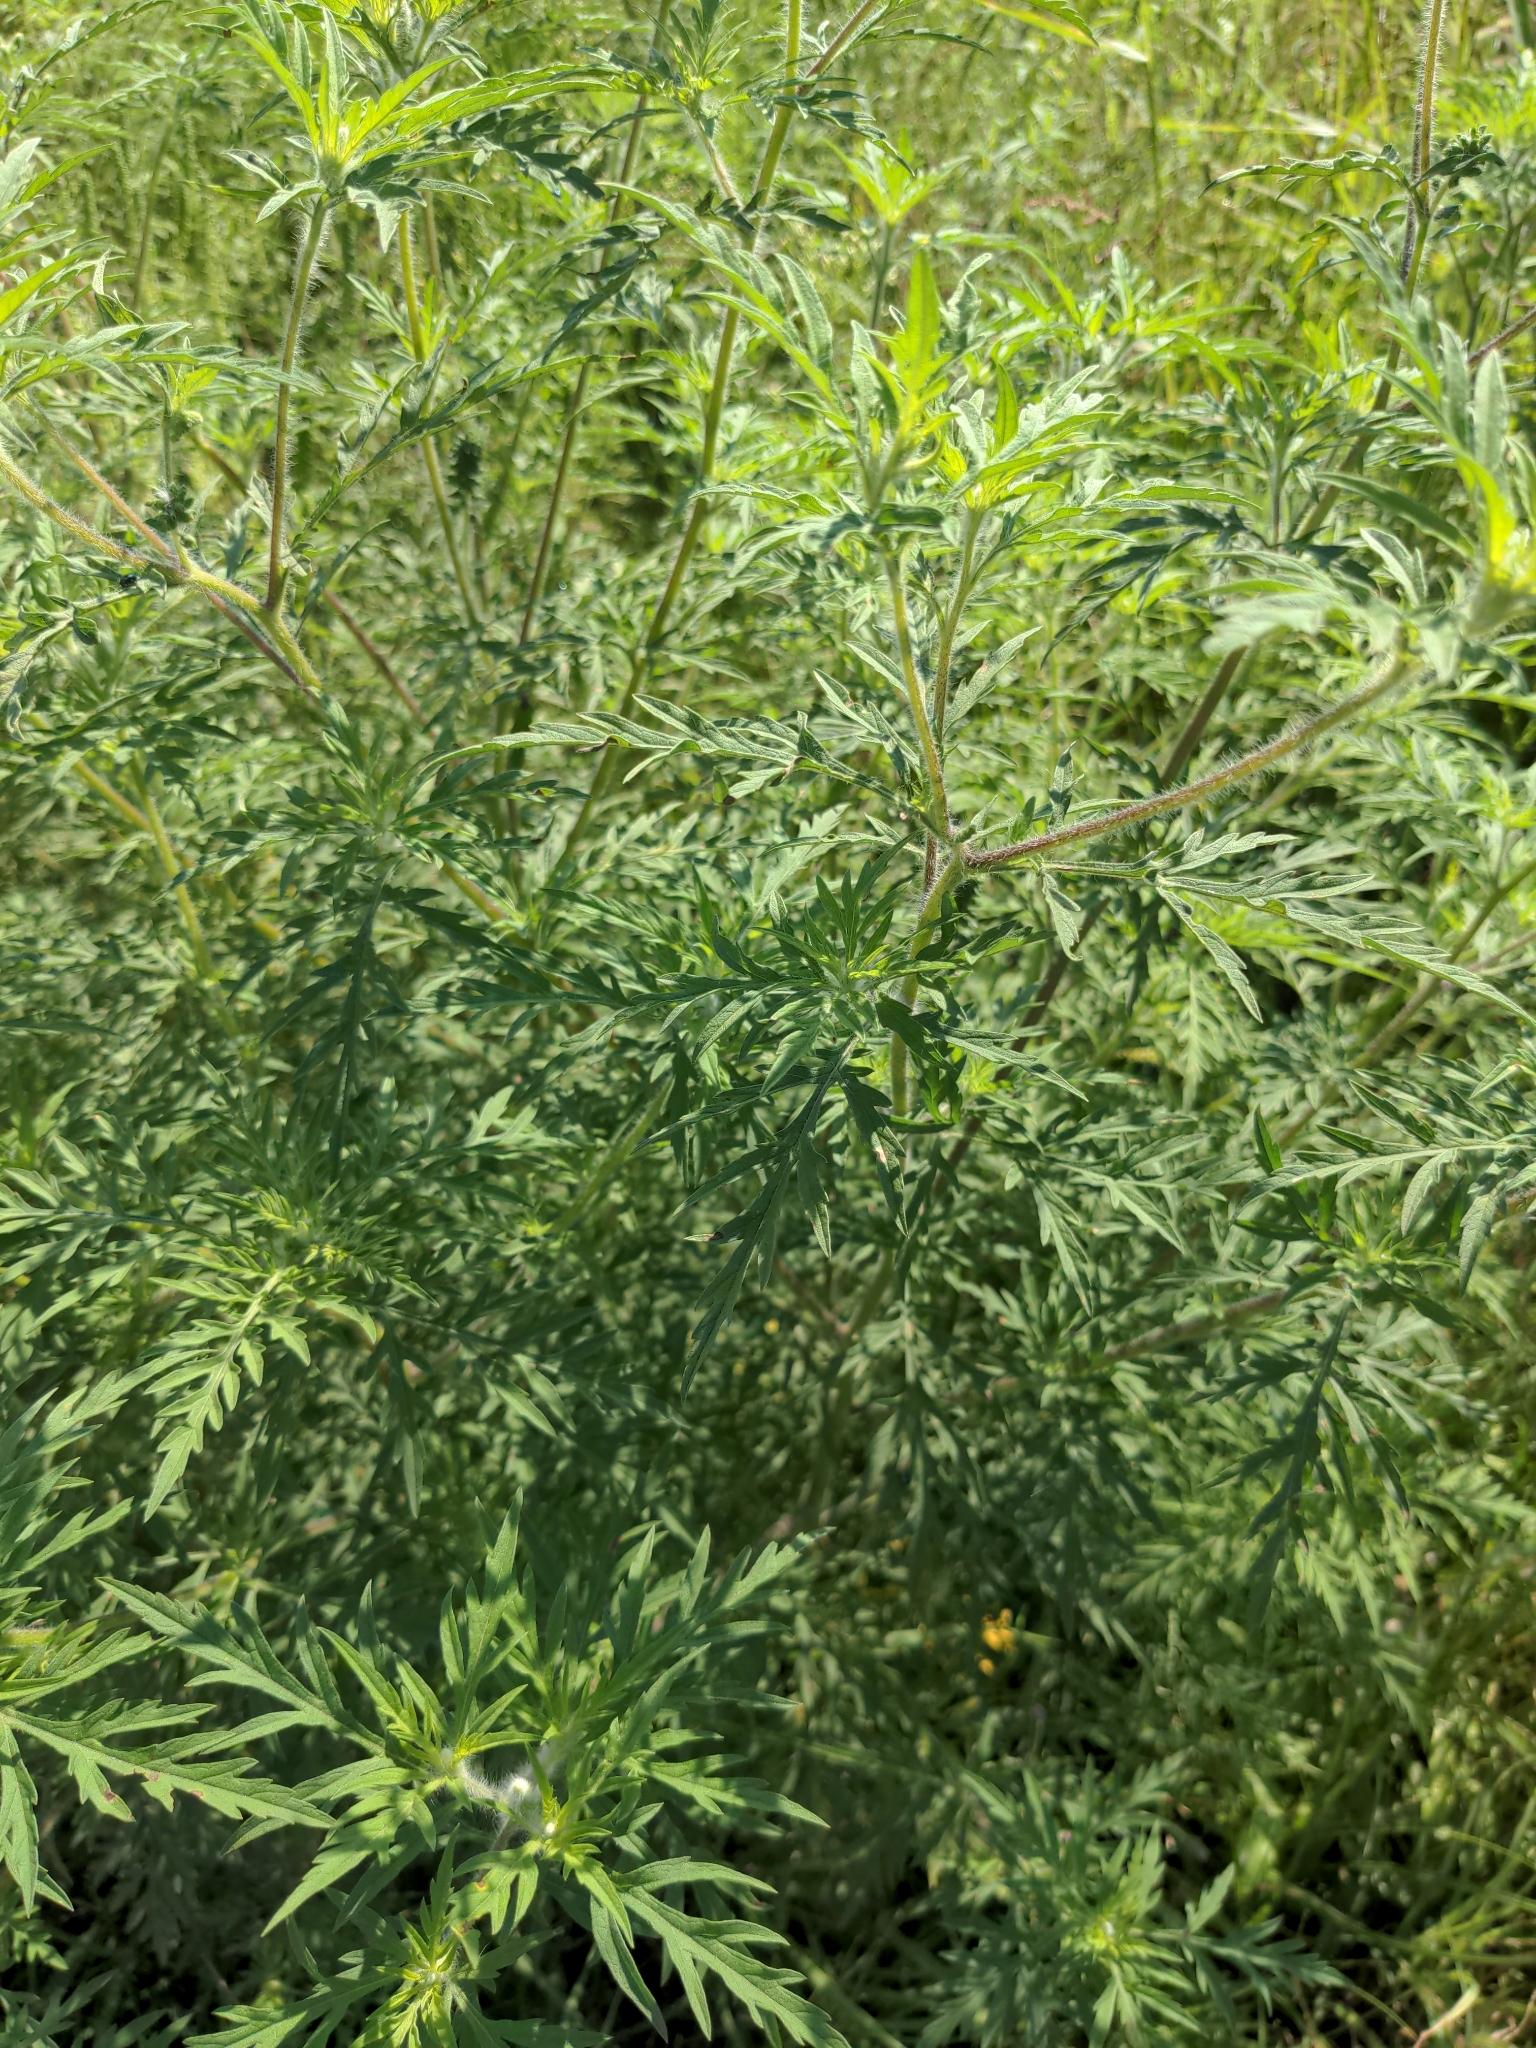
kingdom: Plantae
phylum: Tracheophyta
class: Magnoliopsida
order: Asterales
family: Asteraceae
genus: Ambrosia
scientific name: Ambrosia artemisiifolia
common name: Annual ragweed
